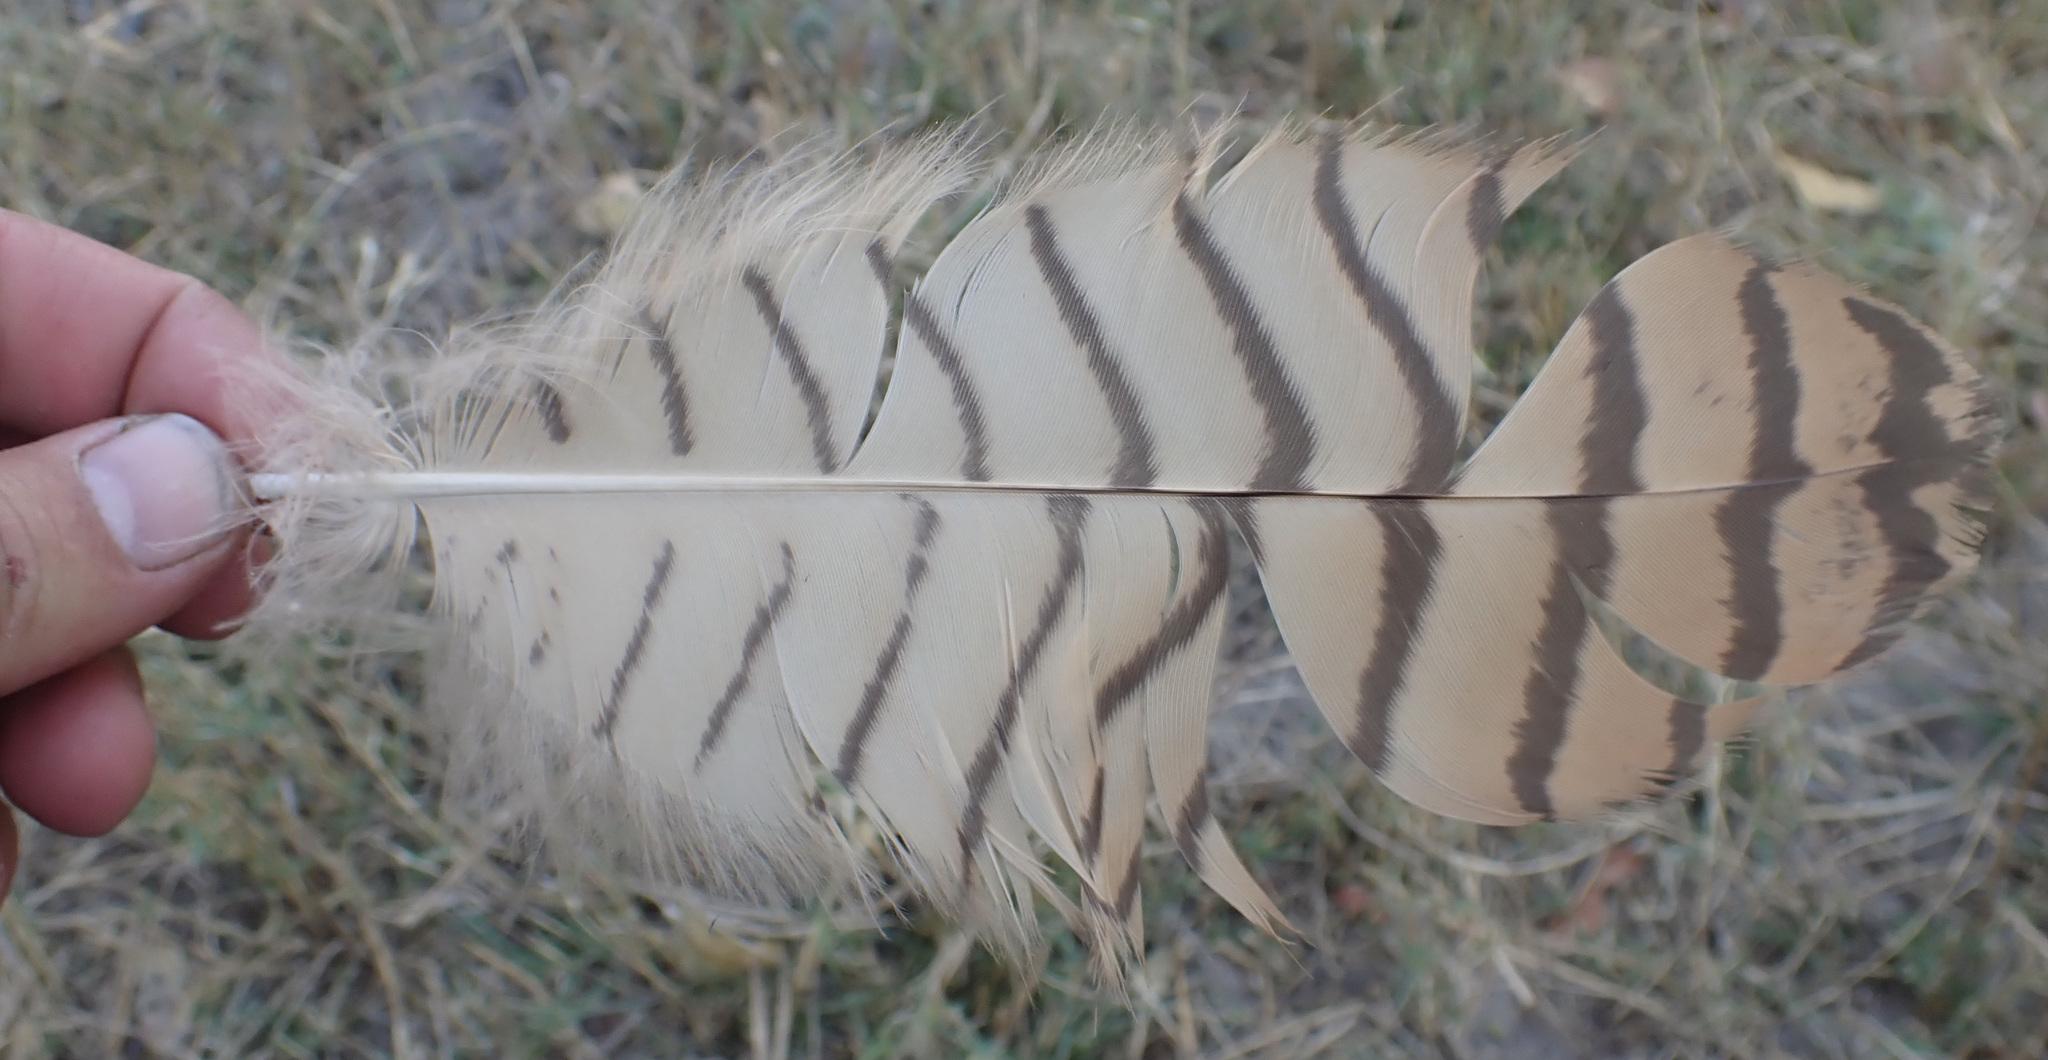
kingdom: Animalia
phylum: Chordata
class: Aves
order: Strigiformes
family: Strigidae
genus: Scotopelia
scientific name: Scotopelia peli
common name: Pel's fishing owl
